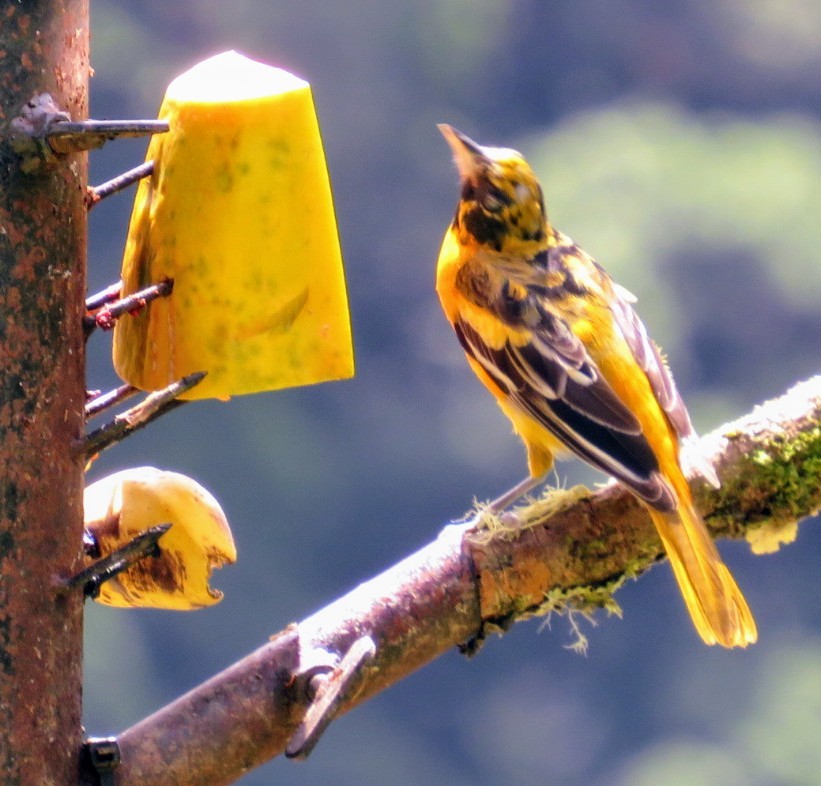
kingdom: Animalia
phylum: Chordata
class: Aves
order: Passeriformes
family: Icteridae
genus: Icterus
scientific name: Icterus galbula
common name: Baltimore oriole
